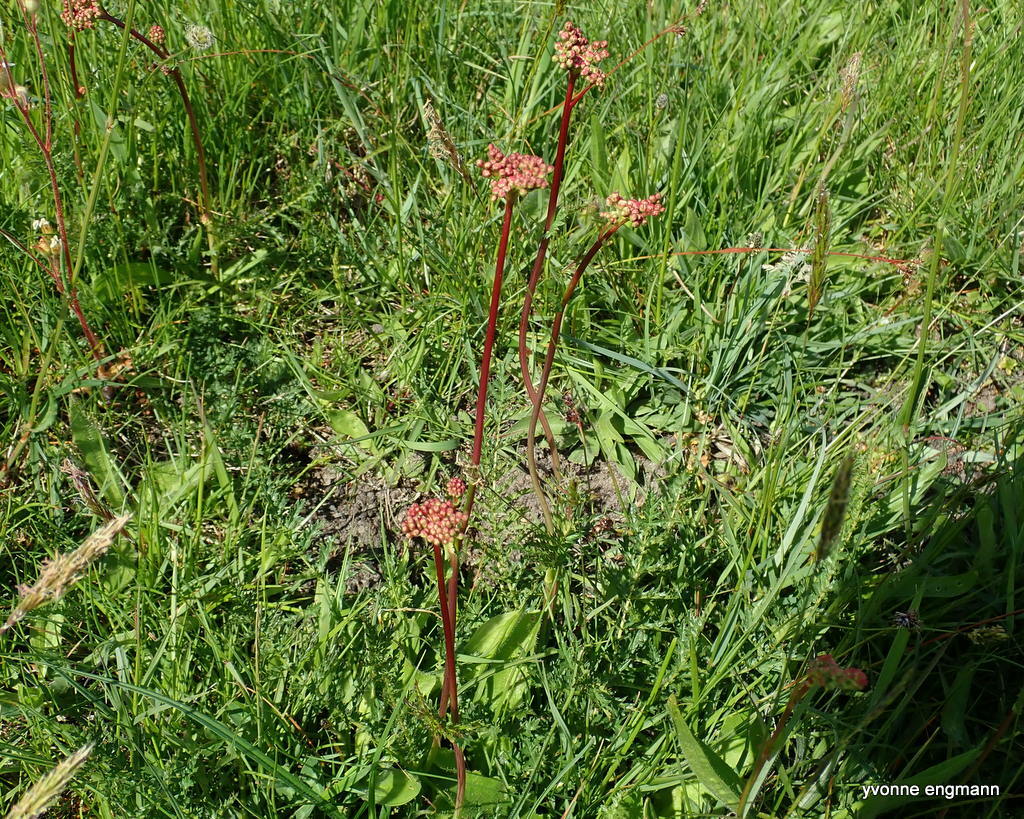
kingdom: Plantae
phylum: Tracheophyta
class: Magnoliopsida
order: Rosales
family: Rosaceae
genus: Filipendula
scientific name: Filipendula vulgaris
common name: Dropwort
